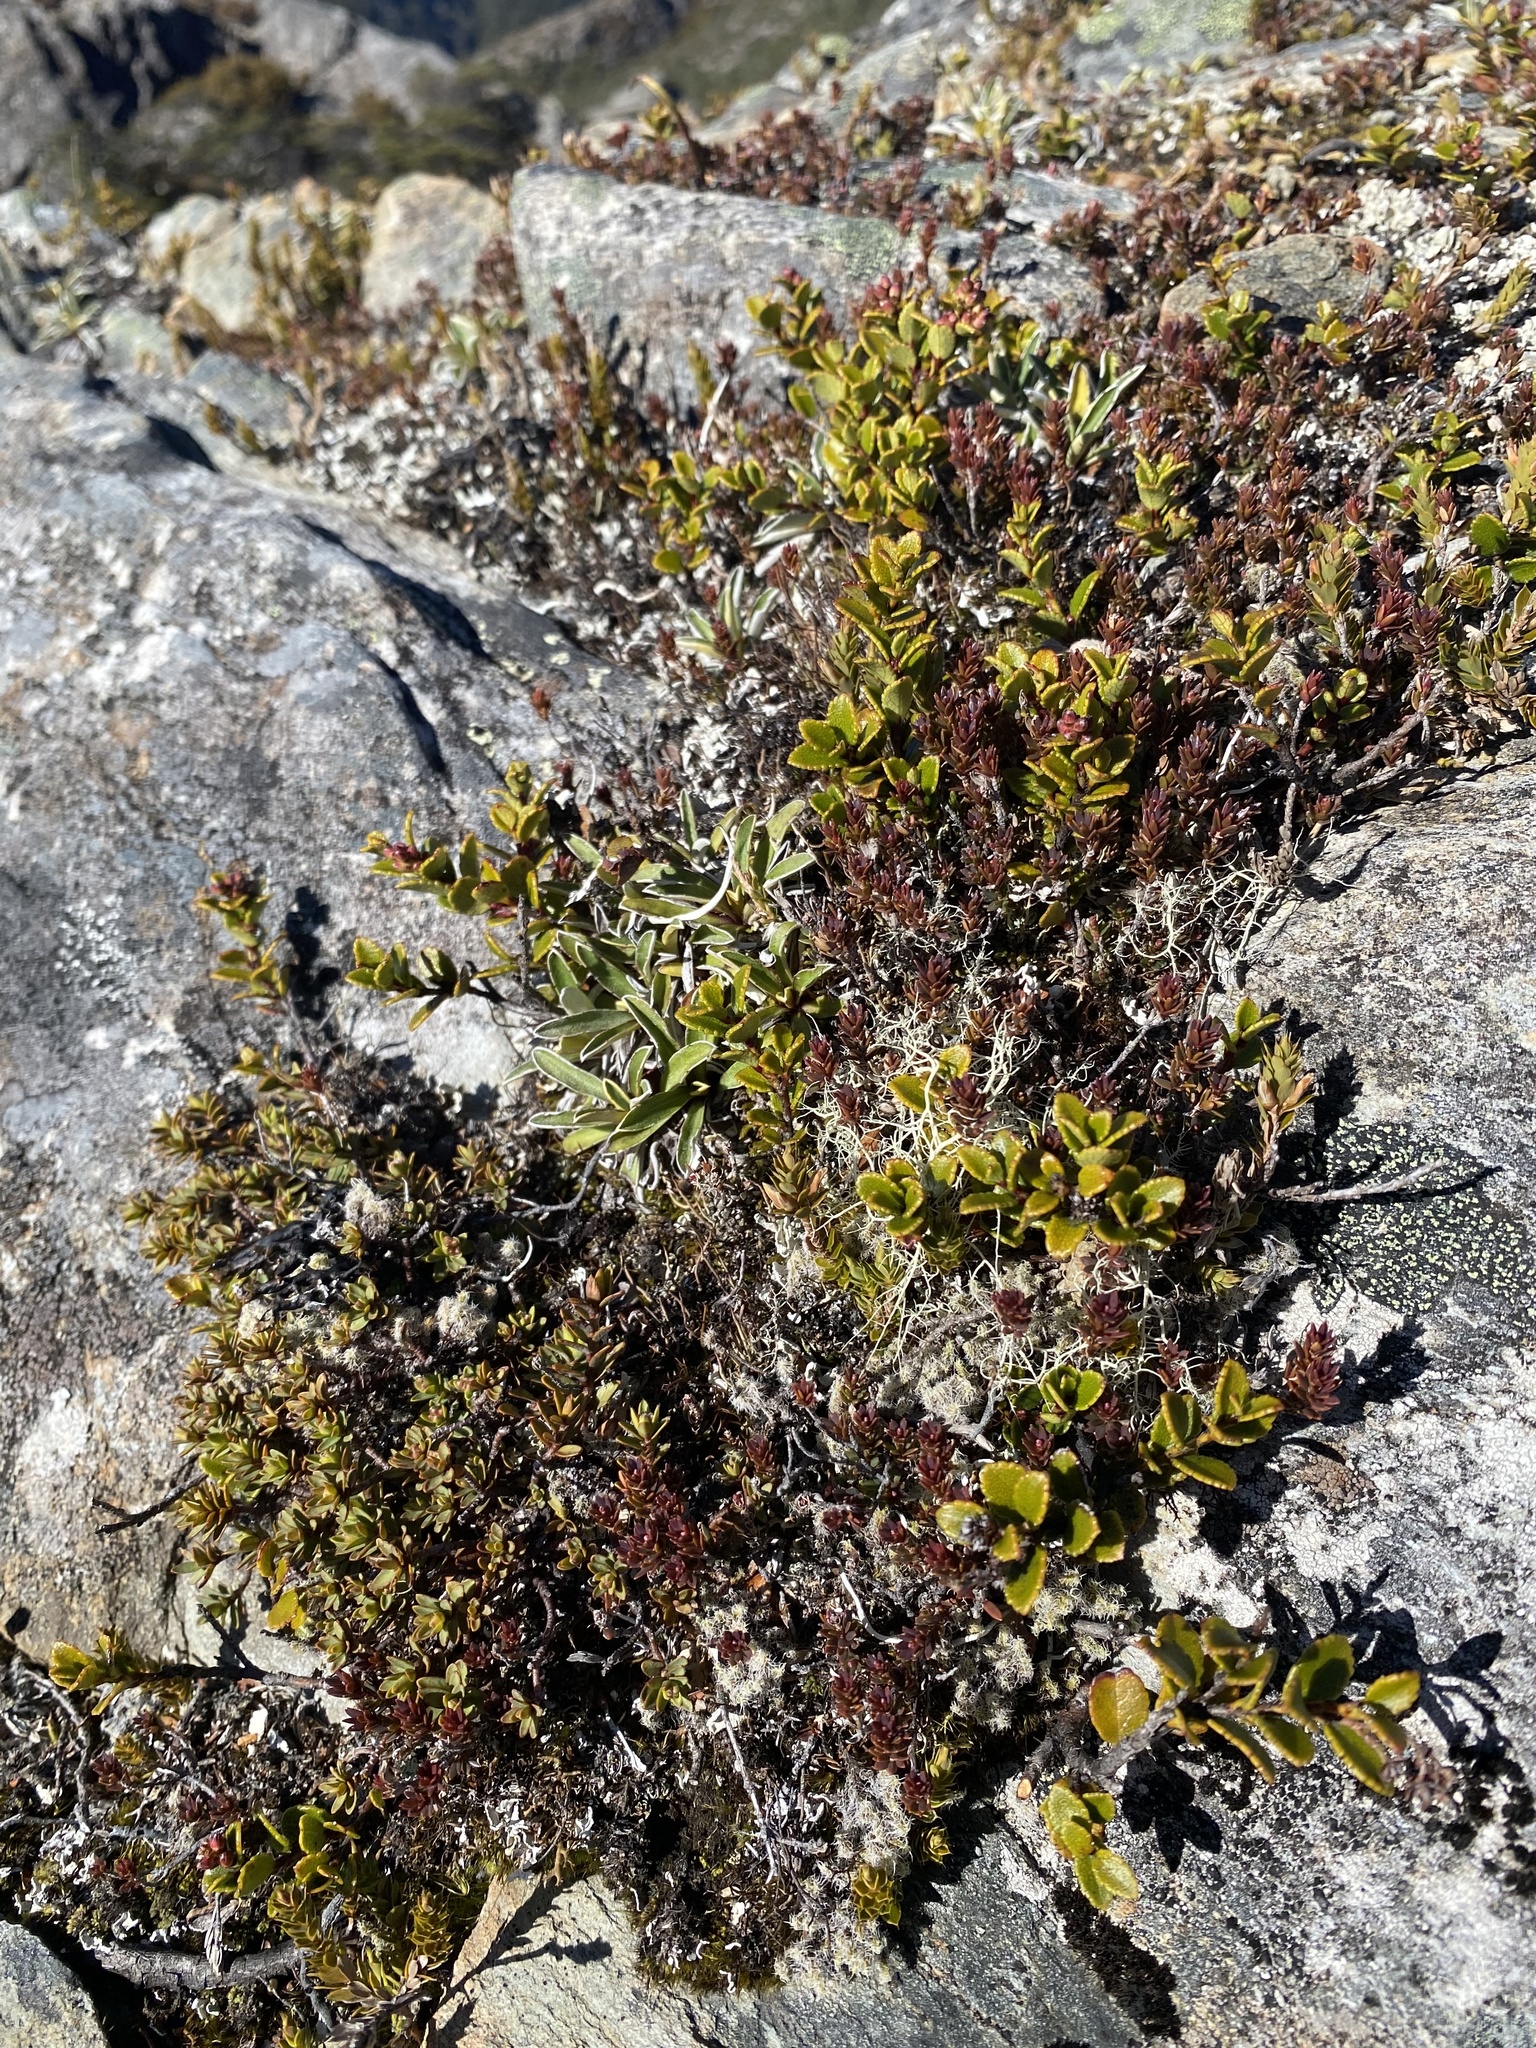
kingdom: Plantae
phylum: Tracheophyta
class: Magnoliopsida
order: Ericales
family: Ericaceae
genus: Styphelia
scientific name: Styphelia nesophila
